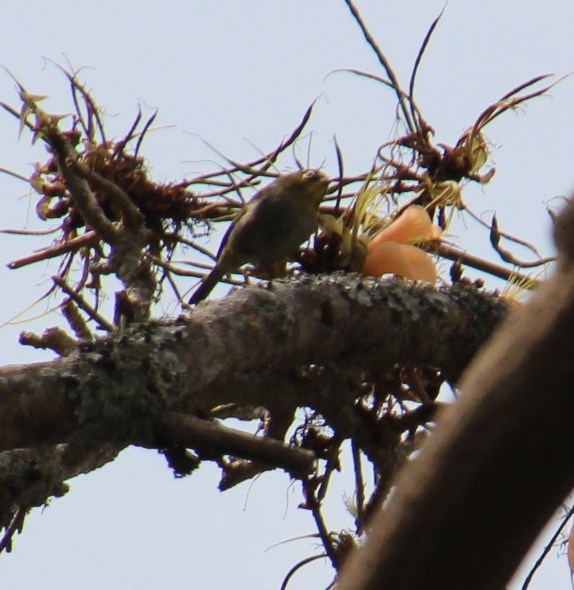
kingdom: Animalia
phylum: Chordata
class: Aves
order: Passeriformes
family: Zosteropidae
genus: Zosterops
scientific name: Zosterops virens
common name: Cape white-eye
